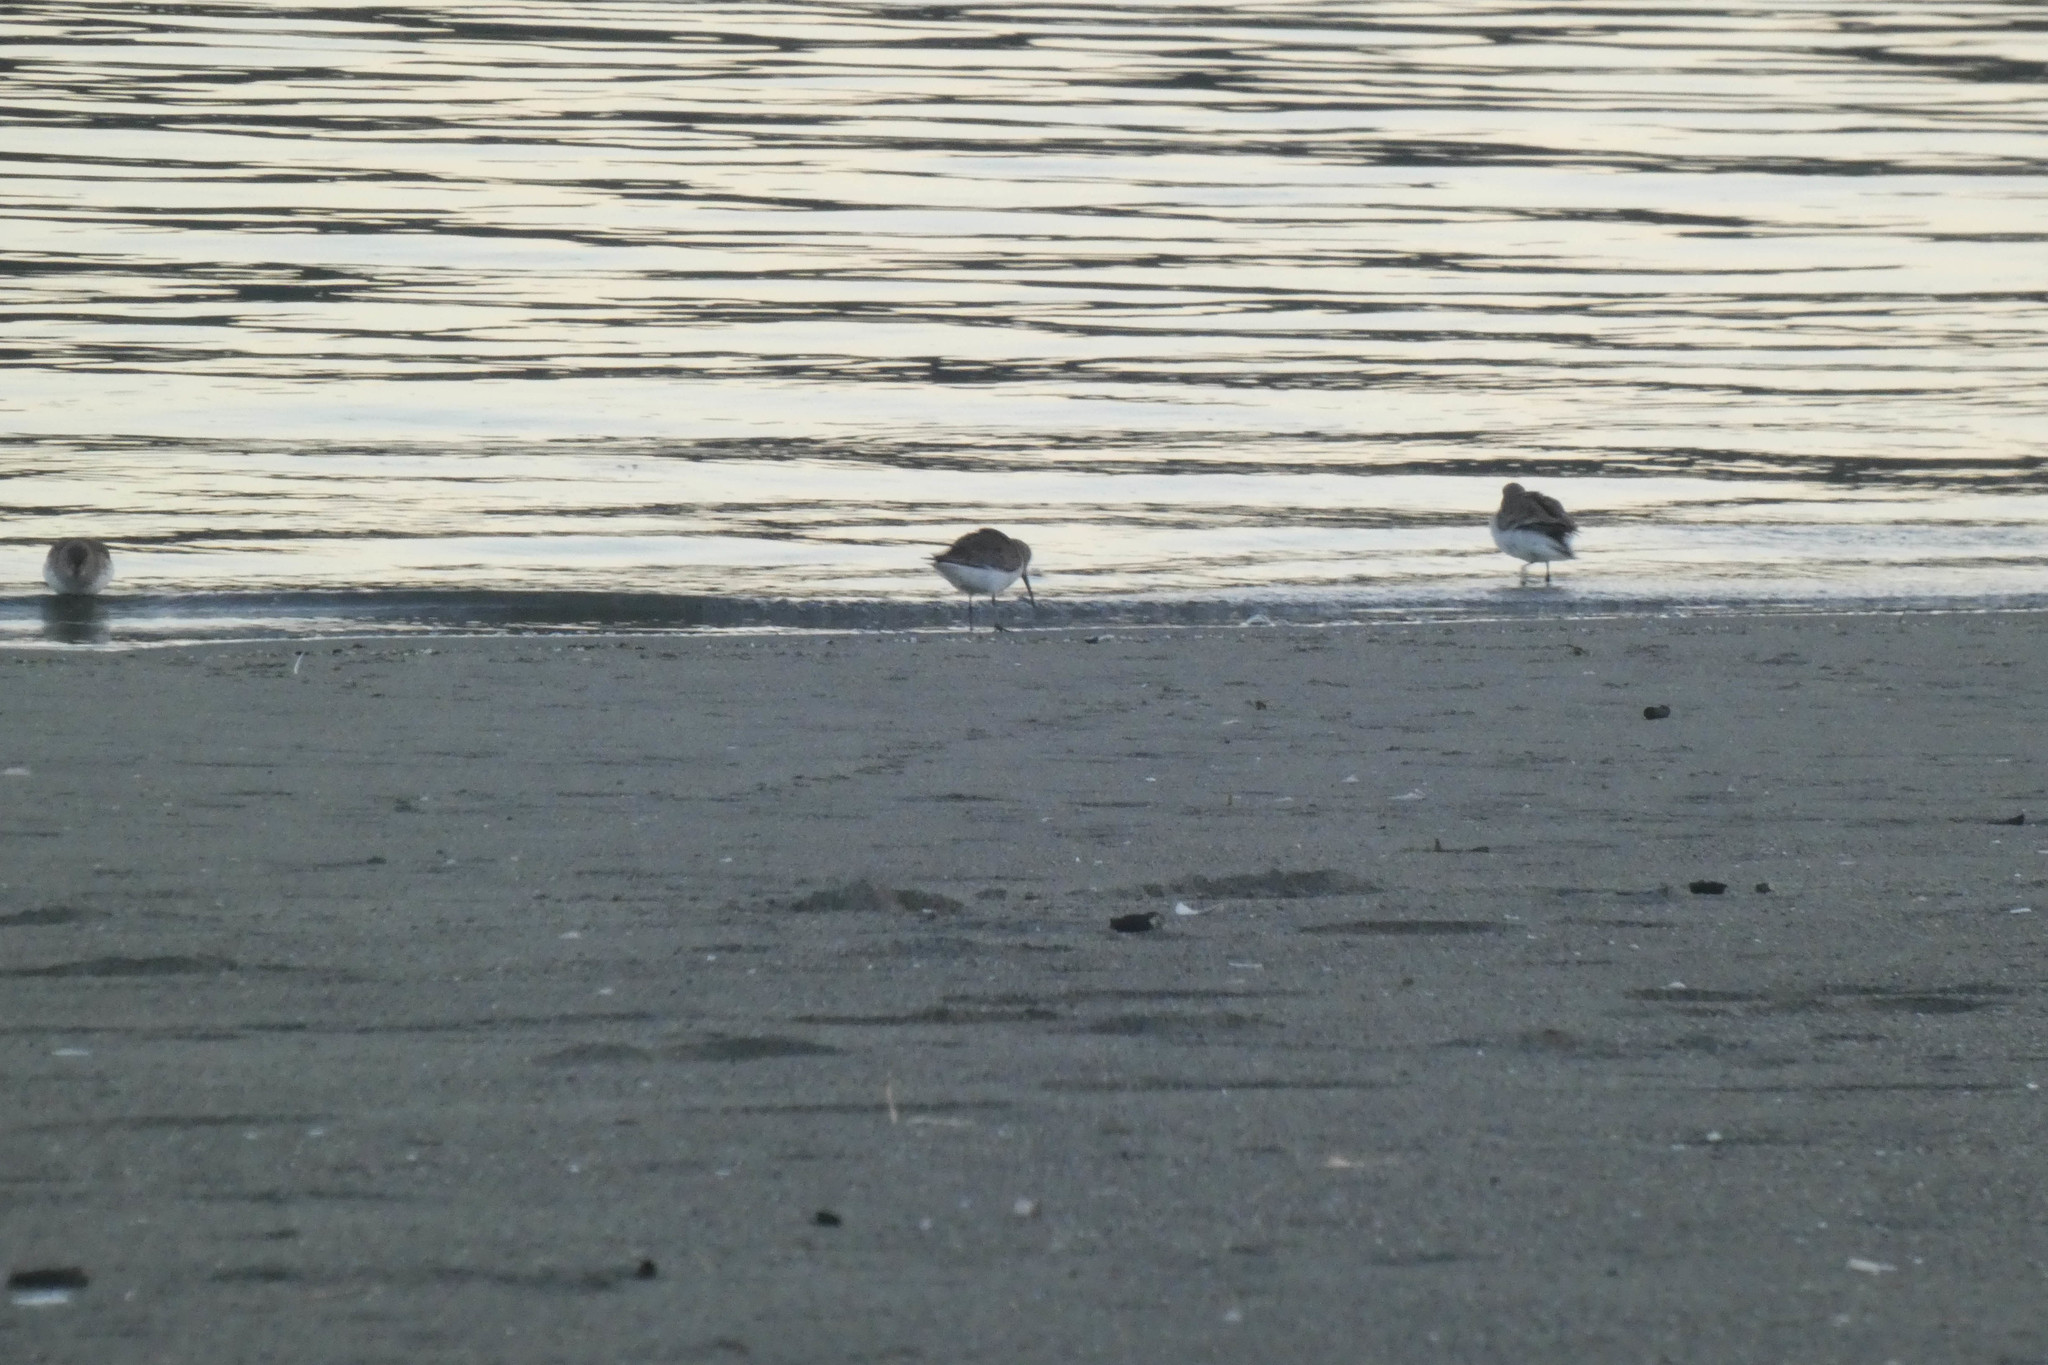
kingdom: Animalia
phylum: Chordata
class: Aves
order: Charadriiformes
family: Scolopacidae
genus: Calidris
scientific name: Calidris alpina
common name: Dunlin
